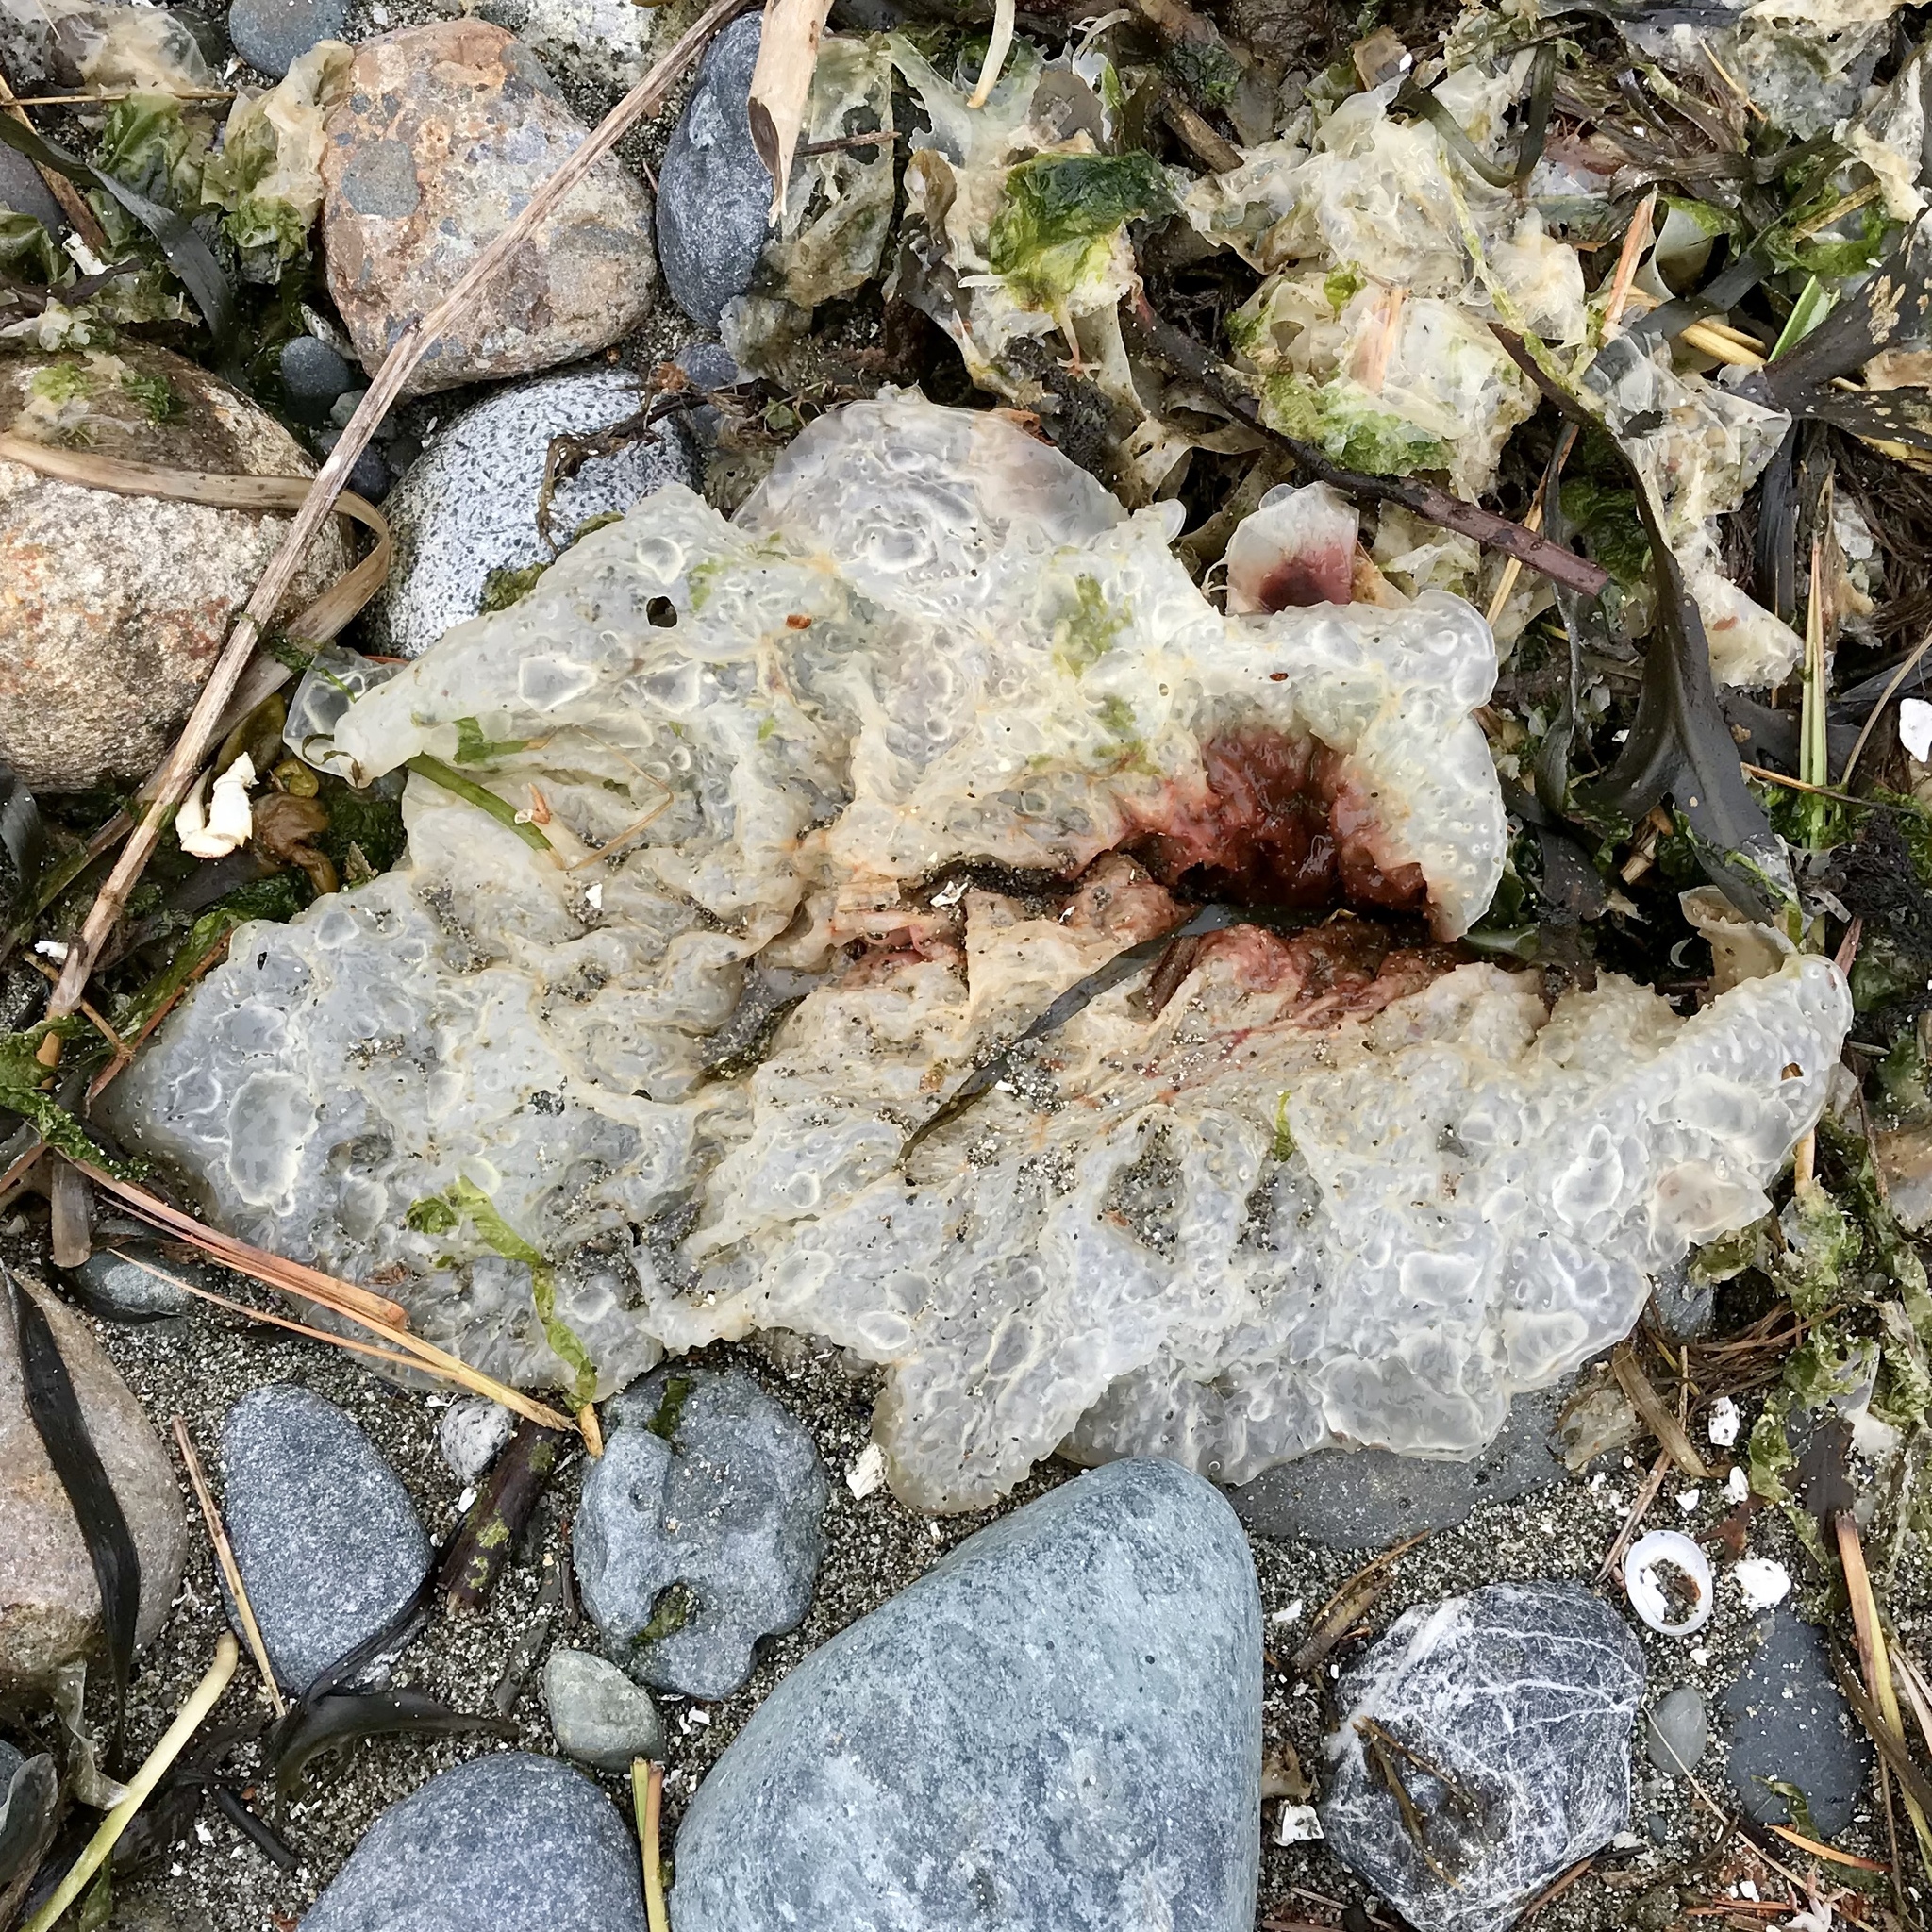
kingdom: Plantae
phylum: Rhodophyta
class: Florideophyceae
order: Gigartinales
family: Gigartinaceae
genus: Chondracanthus
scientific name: Chondracanthus exasperatus
